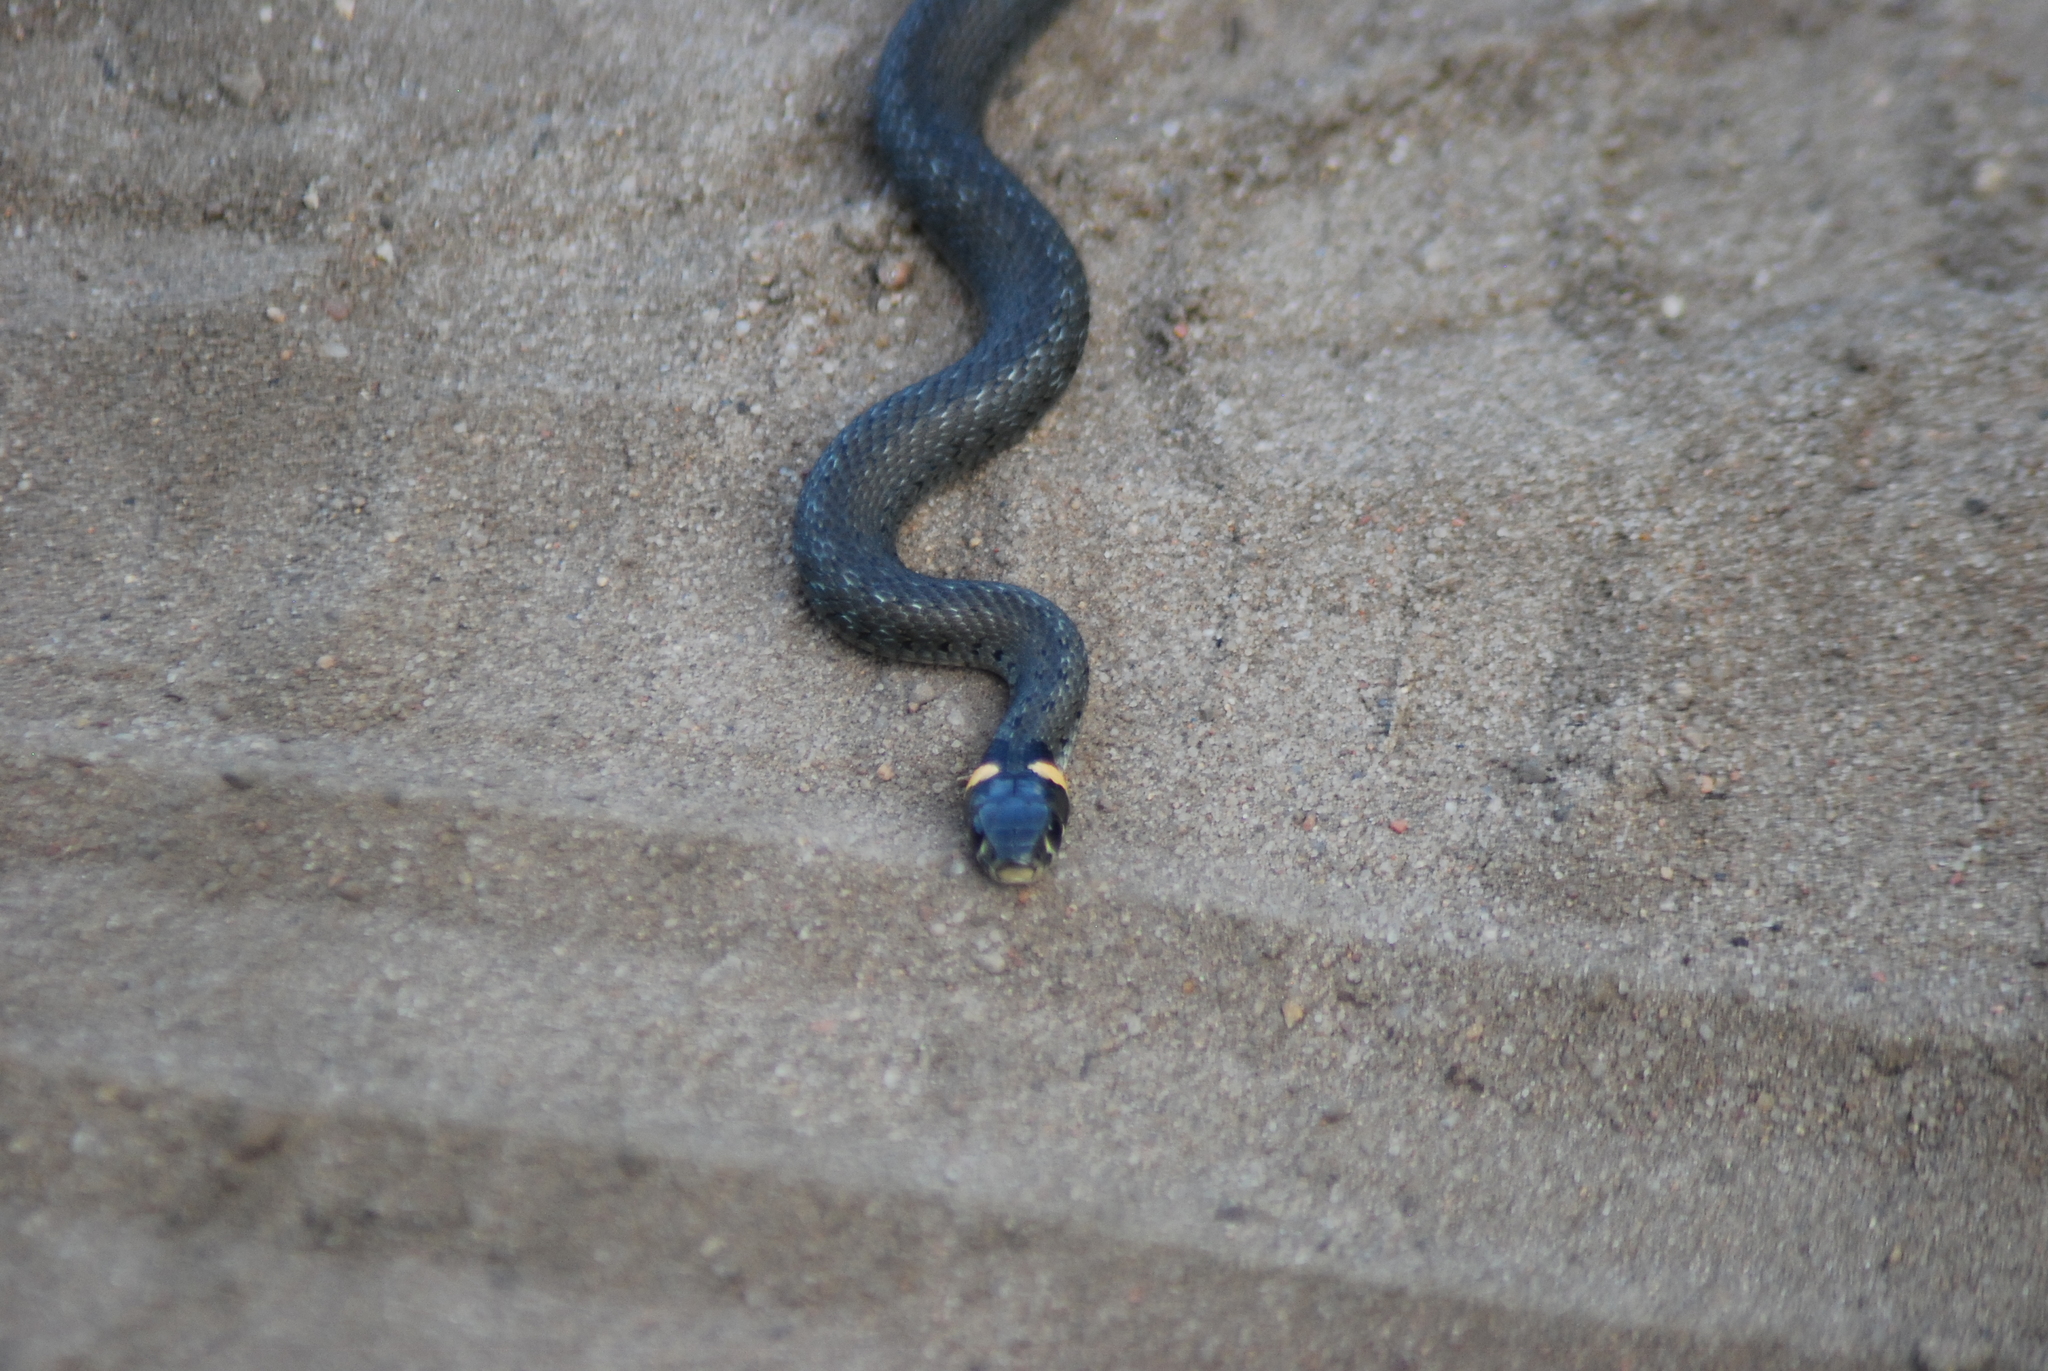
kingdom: Animalia
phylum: Chordata
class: Squamata
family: Colubridae
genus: Natrix
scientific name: Natrix natrix
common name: Grass snake
